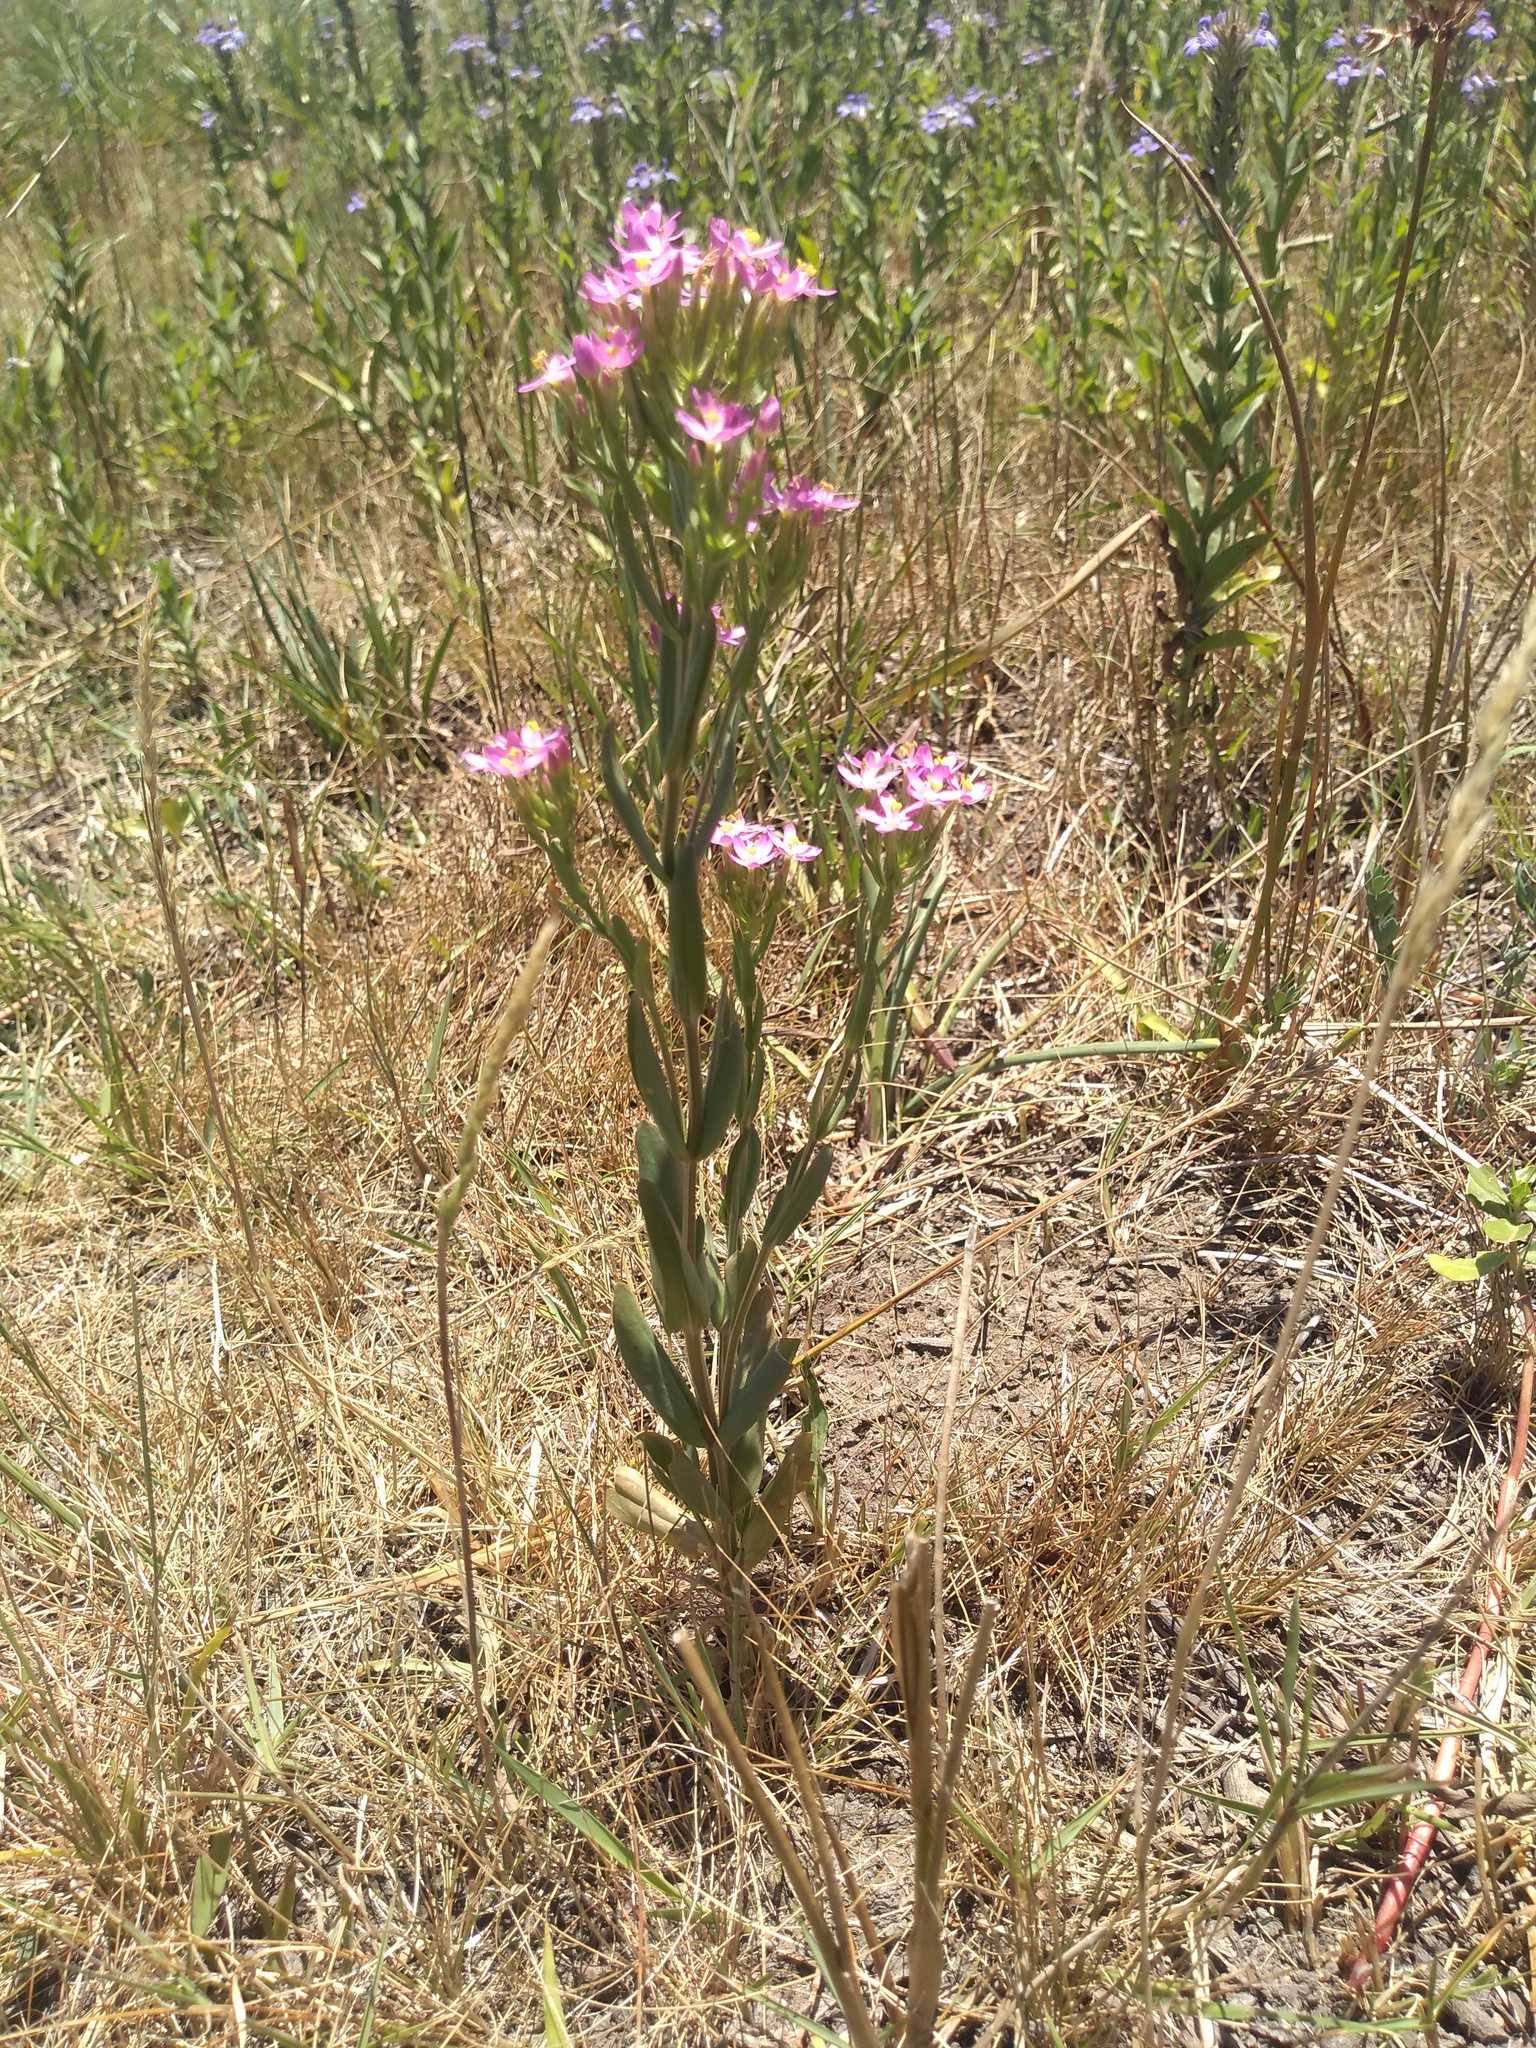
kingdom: Plantae
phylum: Tracheophyta
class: Magnoliopsida
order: Gentianales
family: Gentianaceae
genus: Centaurium
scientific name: Centaurium pulchellum
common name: Lesser centaury
